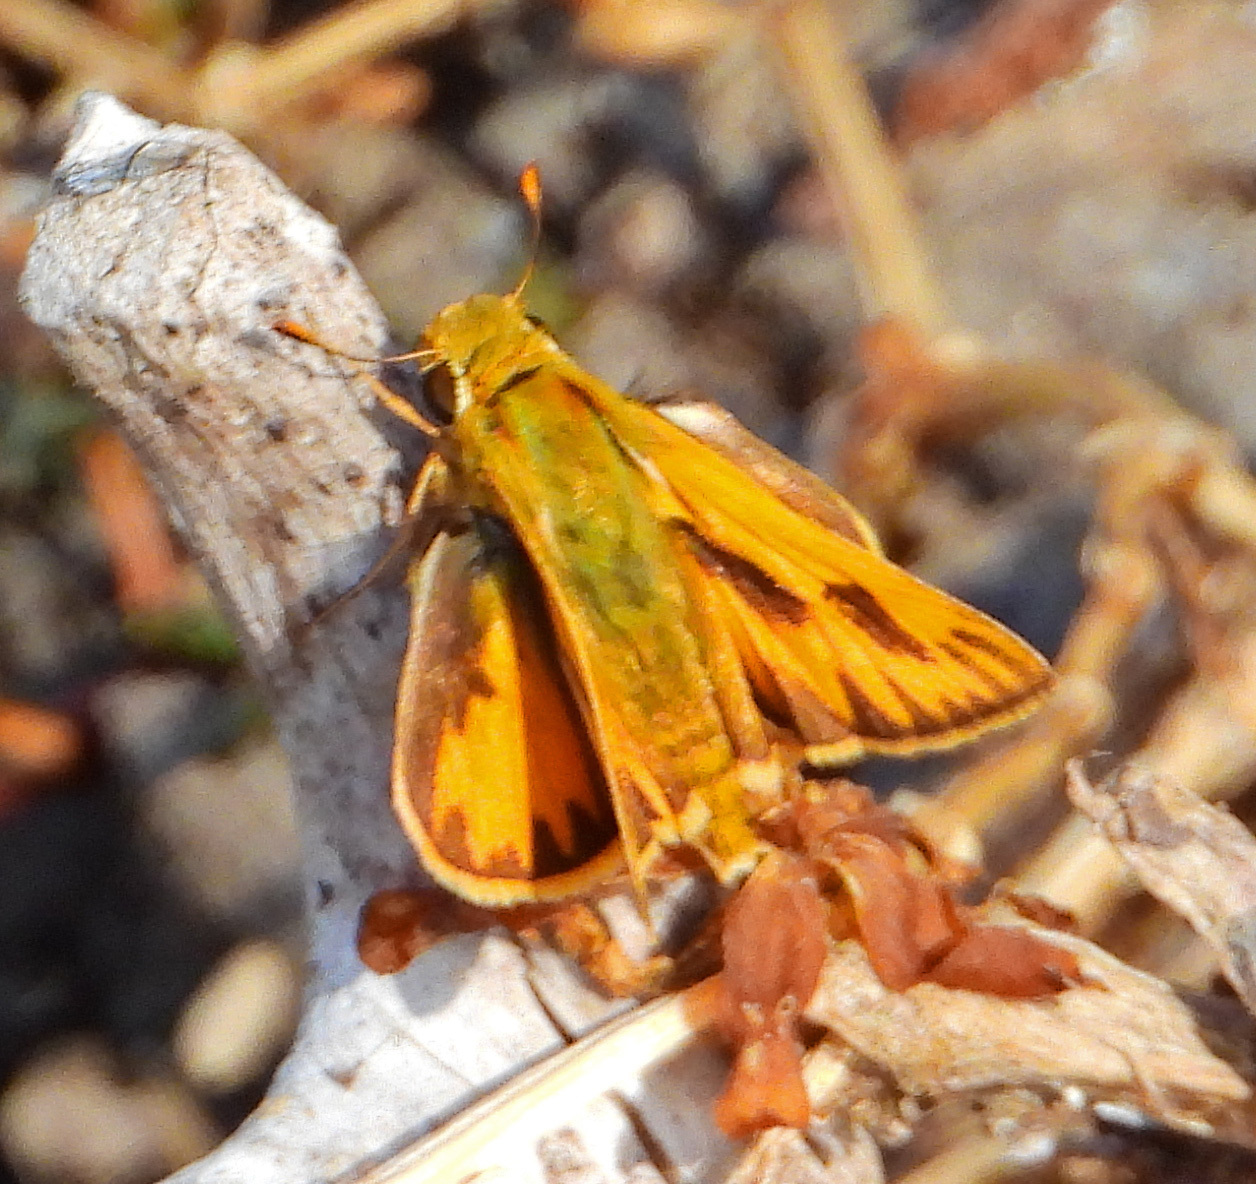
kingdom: Animalia
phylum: Arthropoda
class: Insecta
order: Lepidoptera
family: Hesperiidae
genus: Hylephila
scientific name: Hylephila phyleus
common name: Fiery skipper
